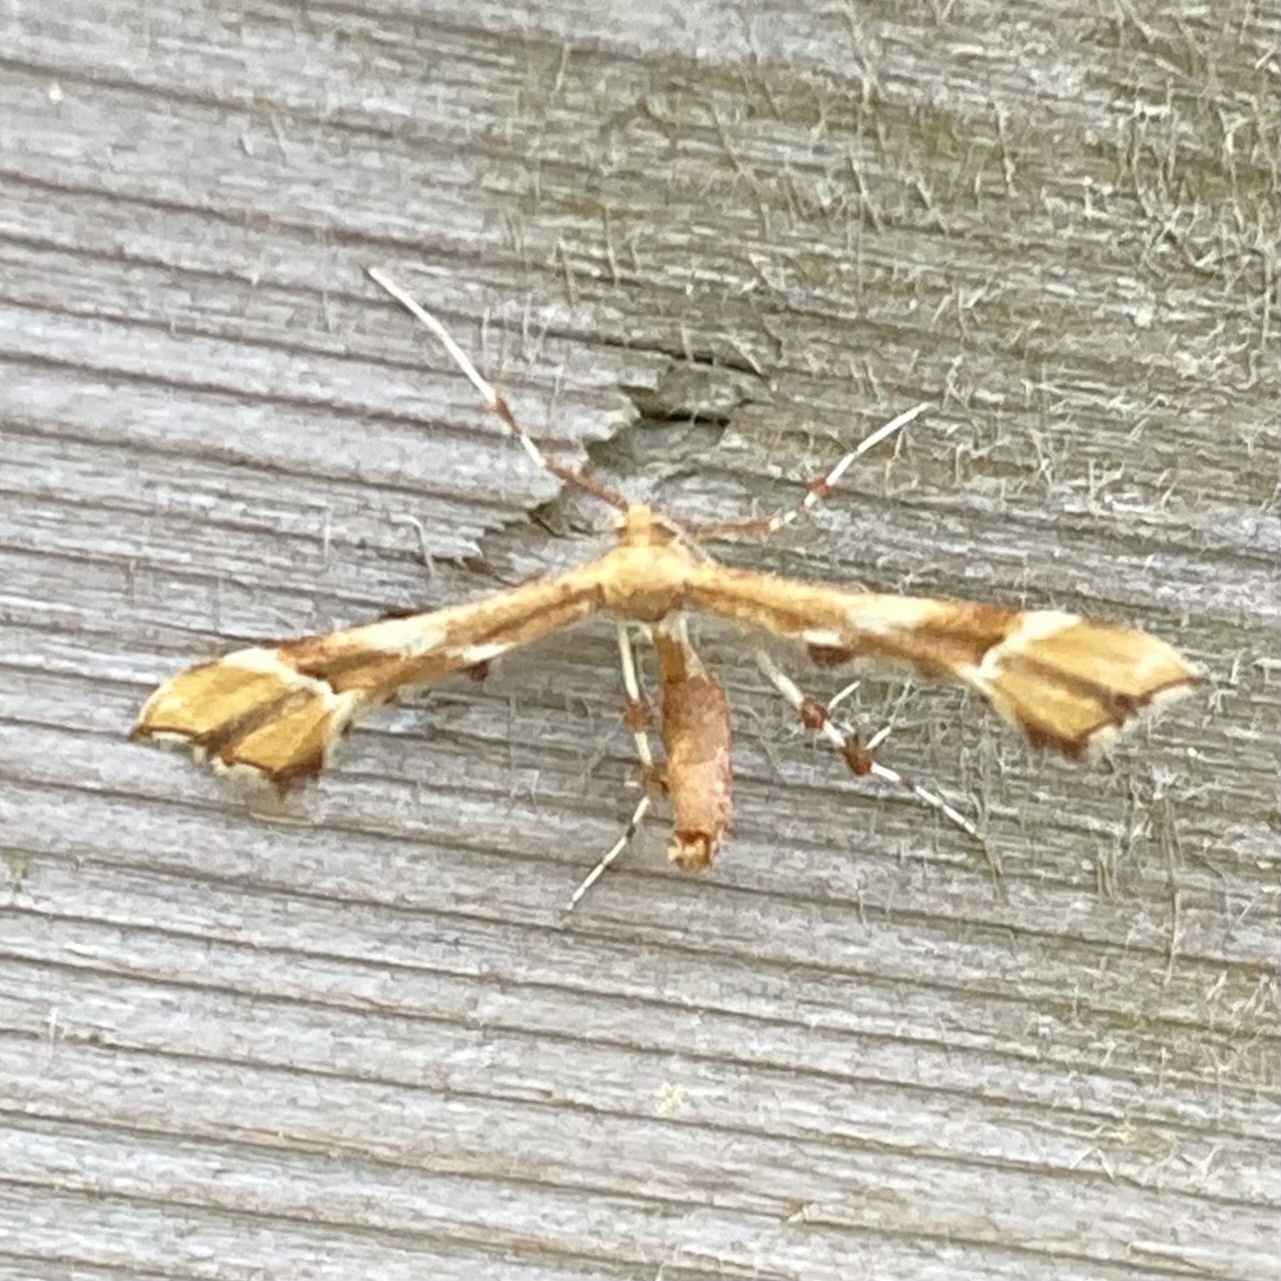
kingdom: Animalia
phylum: Arthropoda
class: Insecta
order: Lepidoptera
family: Pterophoridae
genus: Cnaemidophorus
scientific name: Cnaemidophorus rhododactyla
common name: Rose plume
